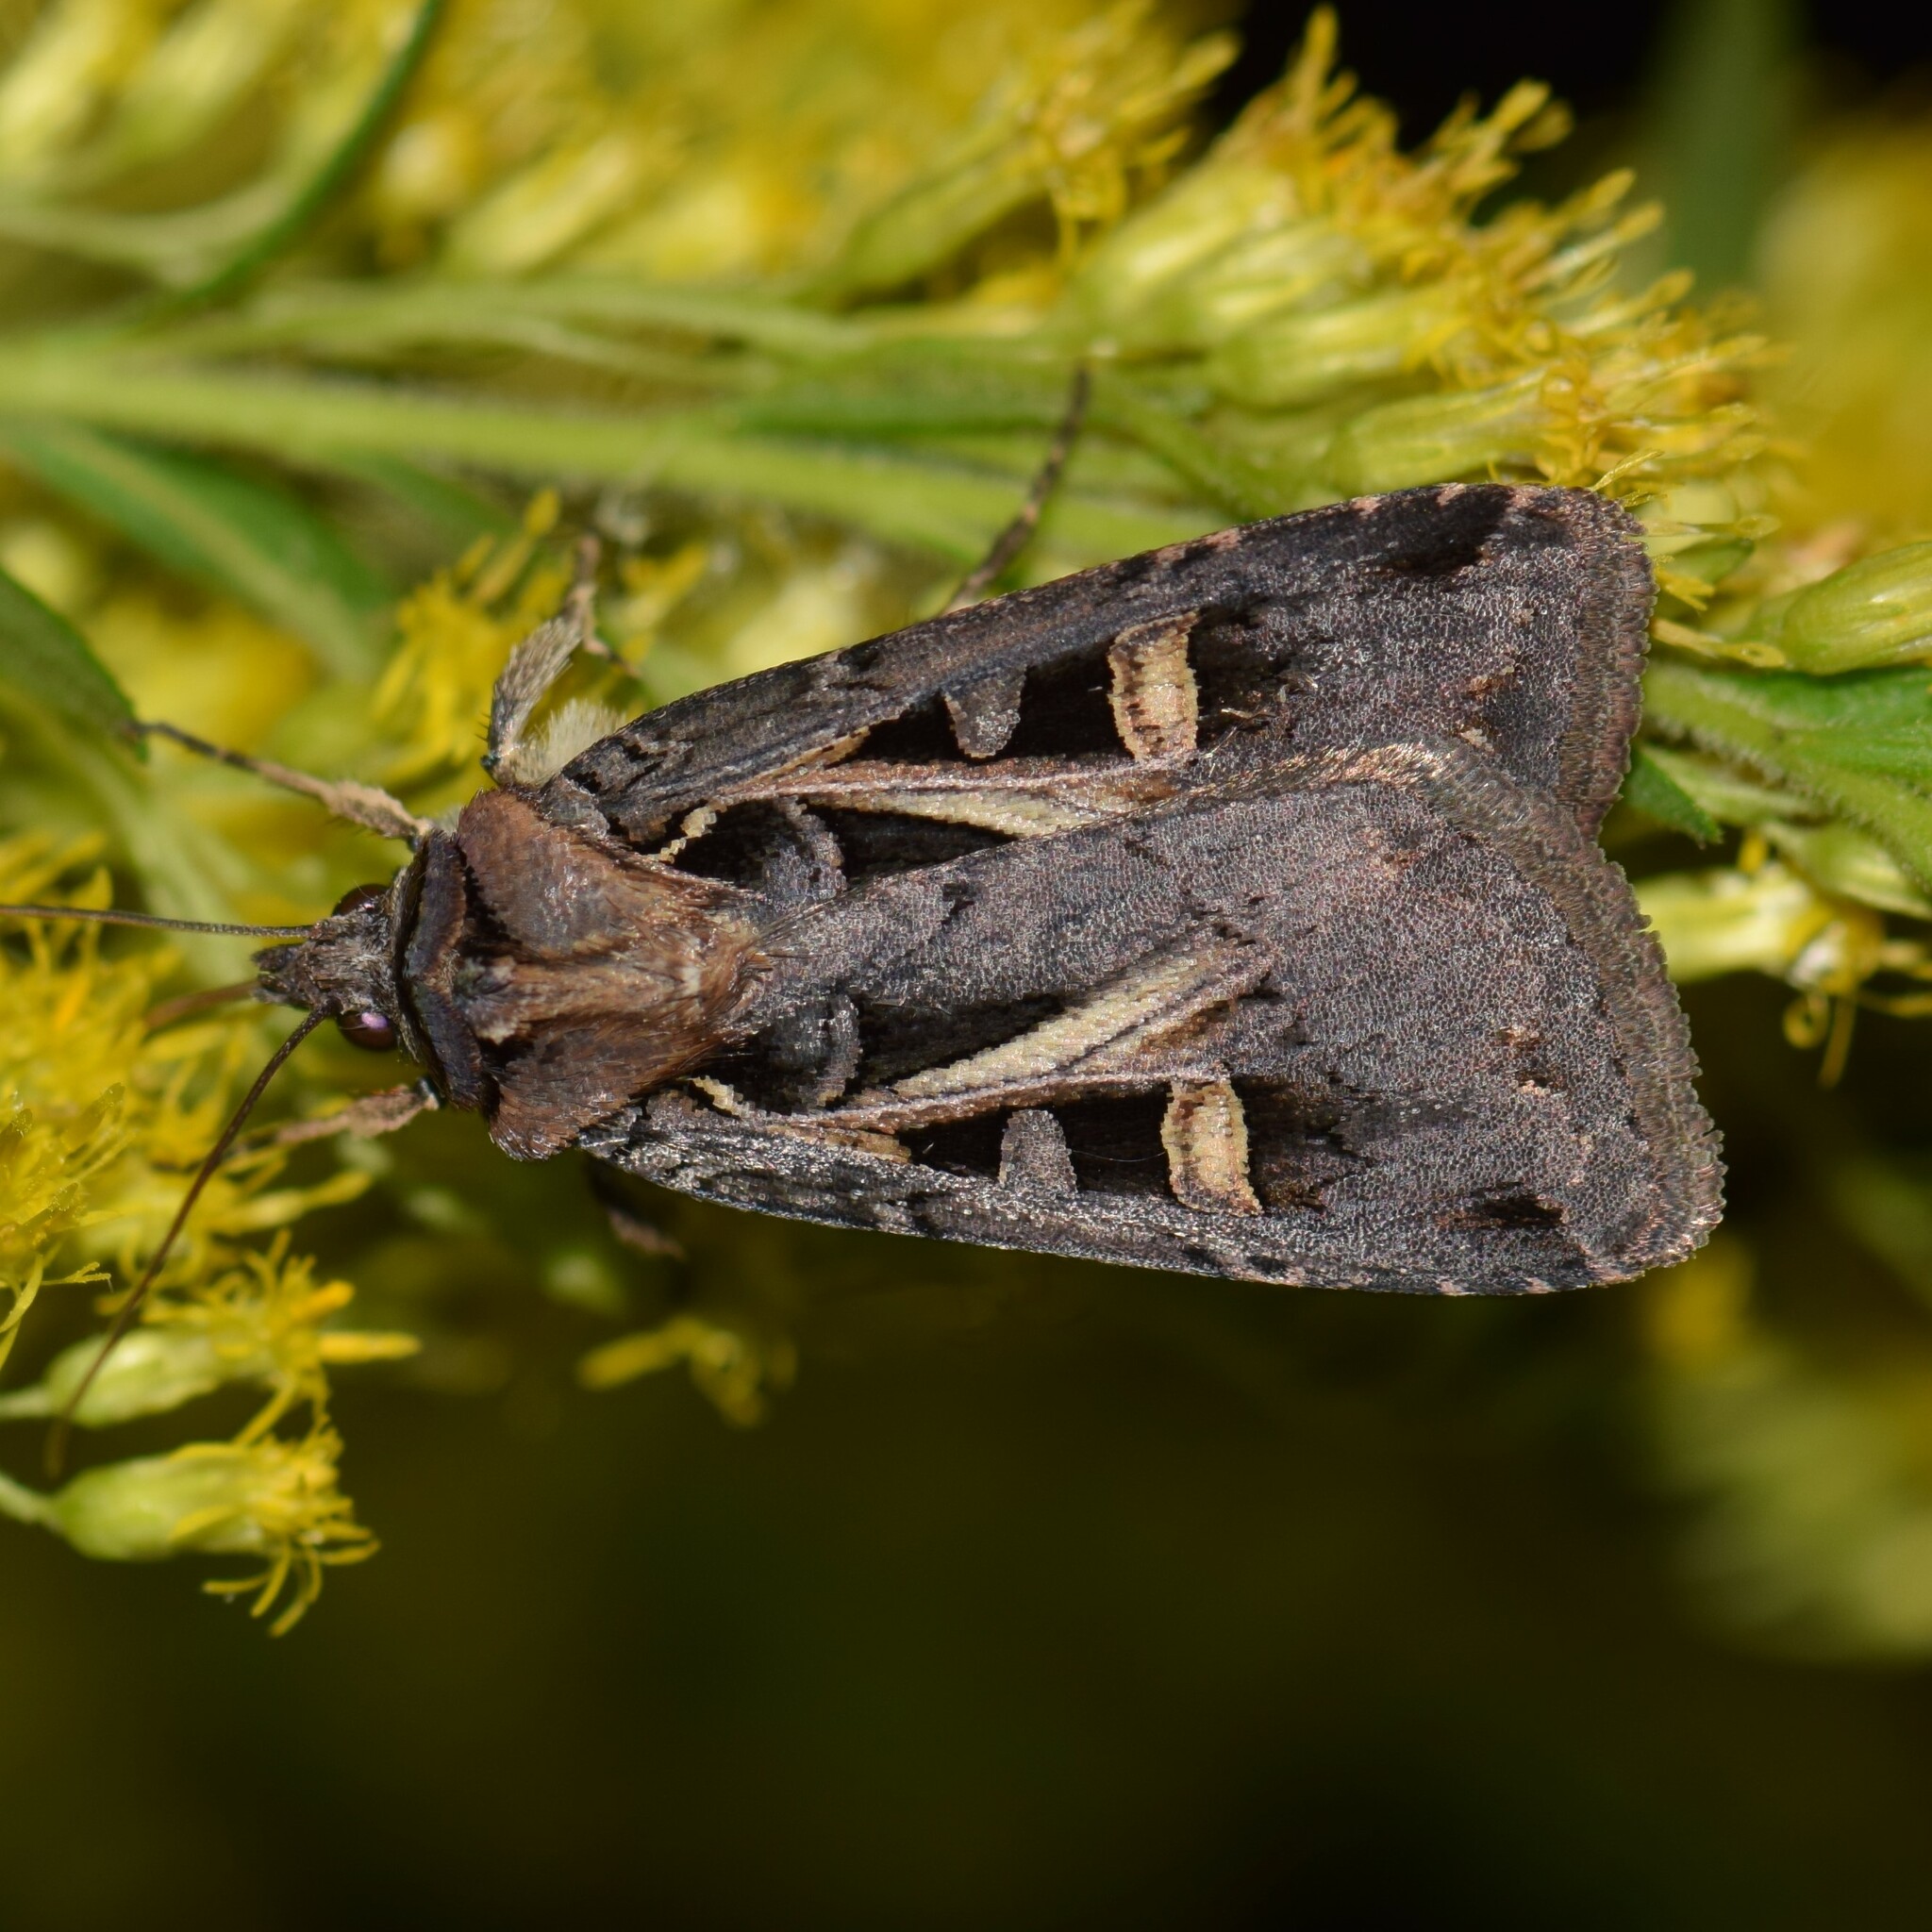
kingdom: Animalia
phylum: Arthropoda
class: Insecta
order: Lepidoptera
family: Noctuidae
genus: Feltia
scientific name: Feltia herilis
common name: Master's dart
